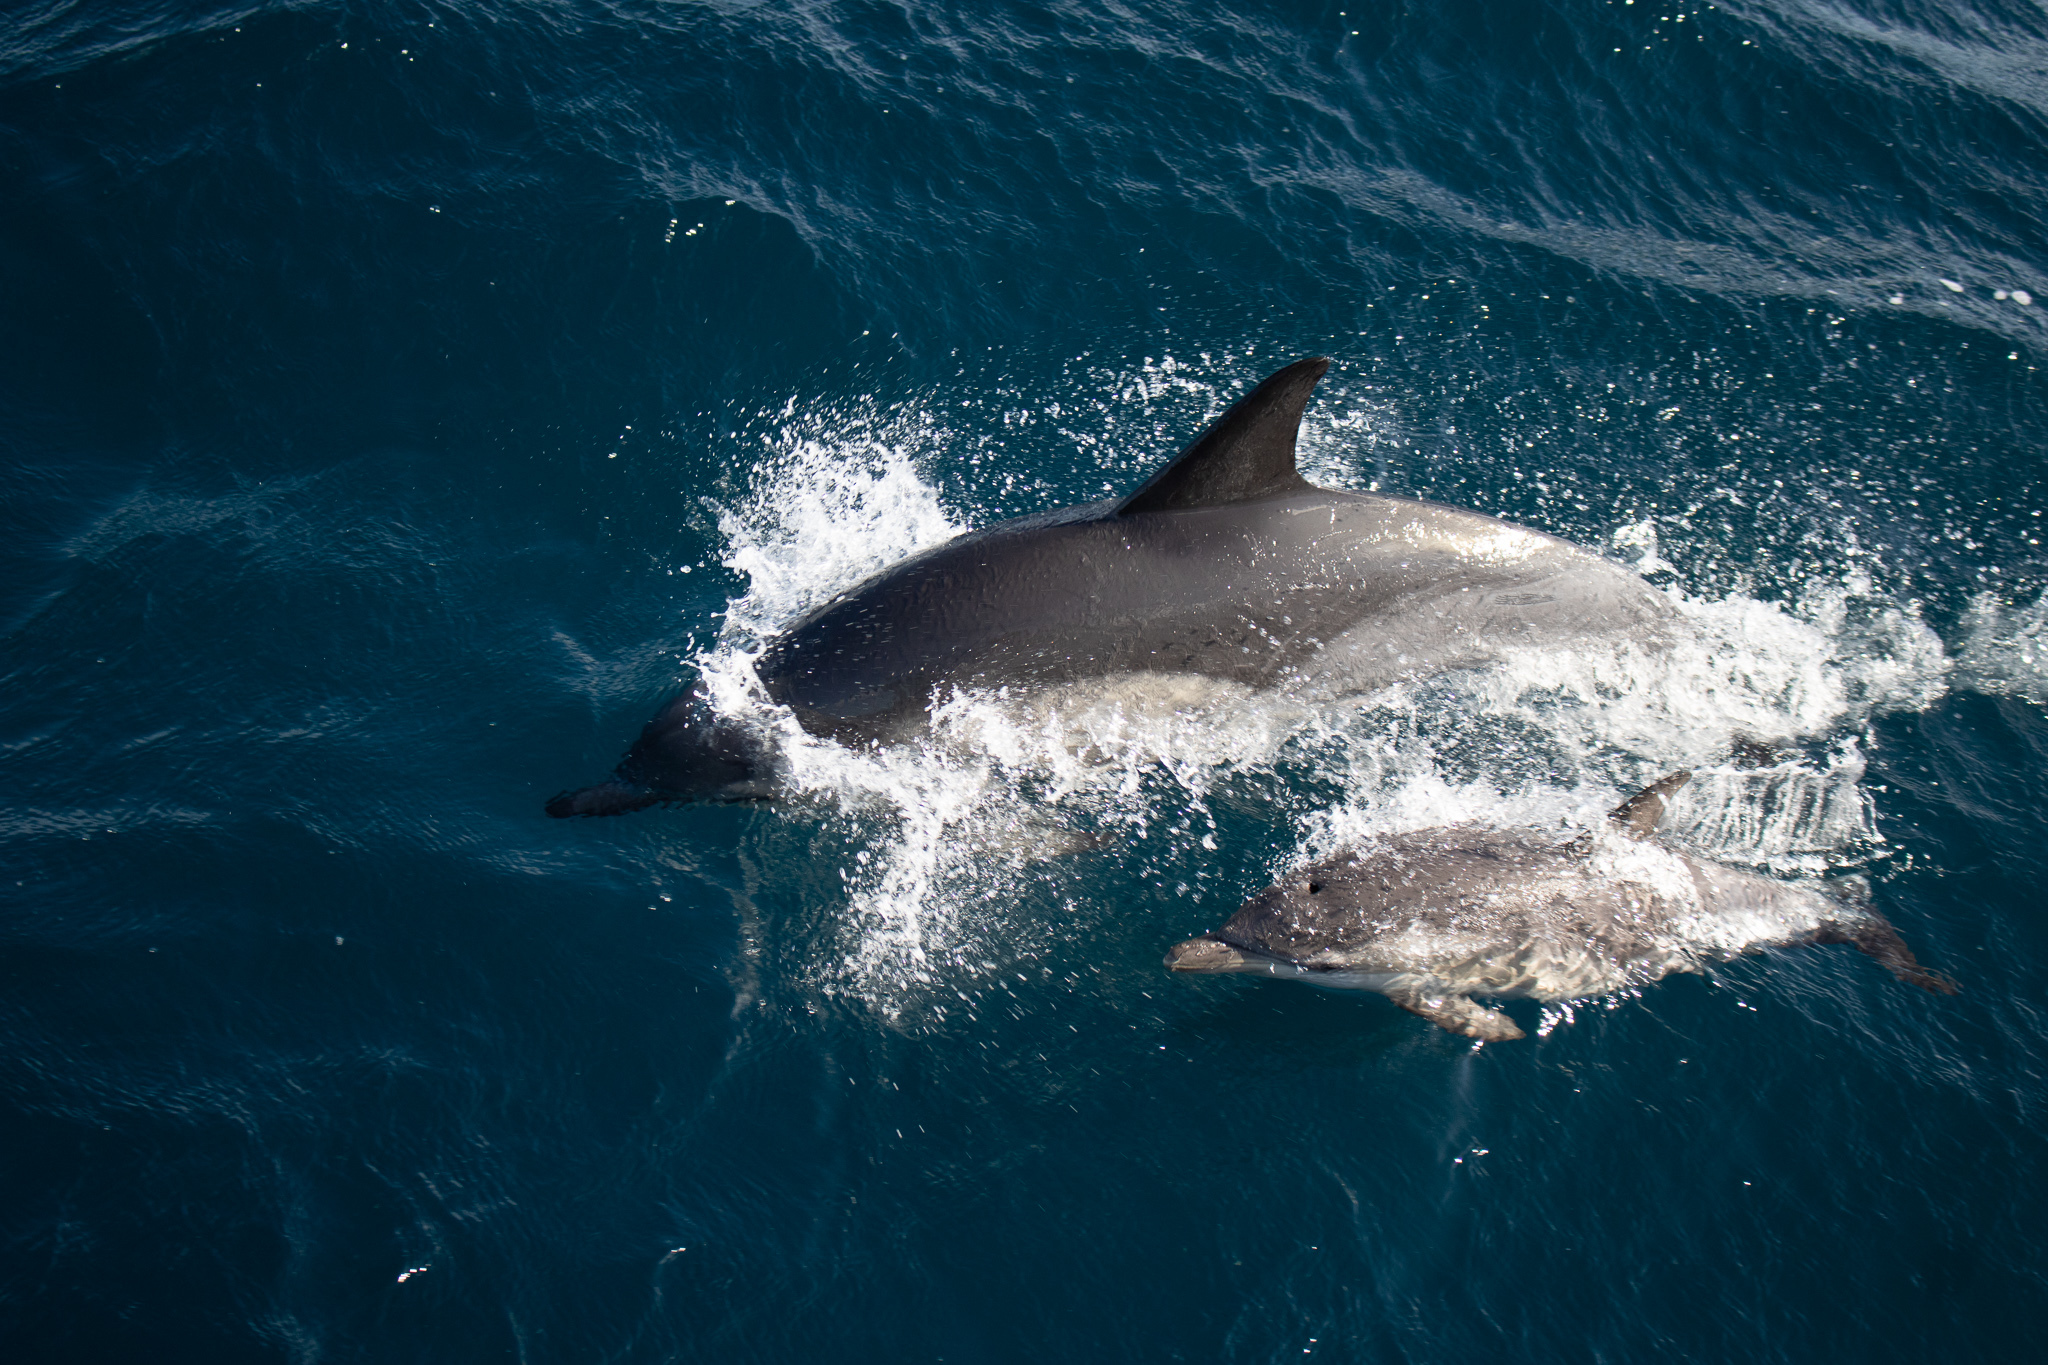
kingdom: Animalia
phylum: Chordata
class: Mammalia
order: Cetacea
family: Delphinidae
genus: Delphinus
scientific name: Delphinus delphis
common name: Common dolphin
